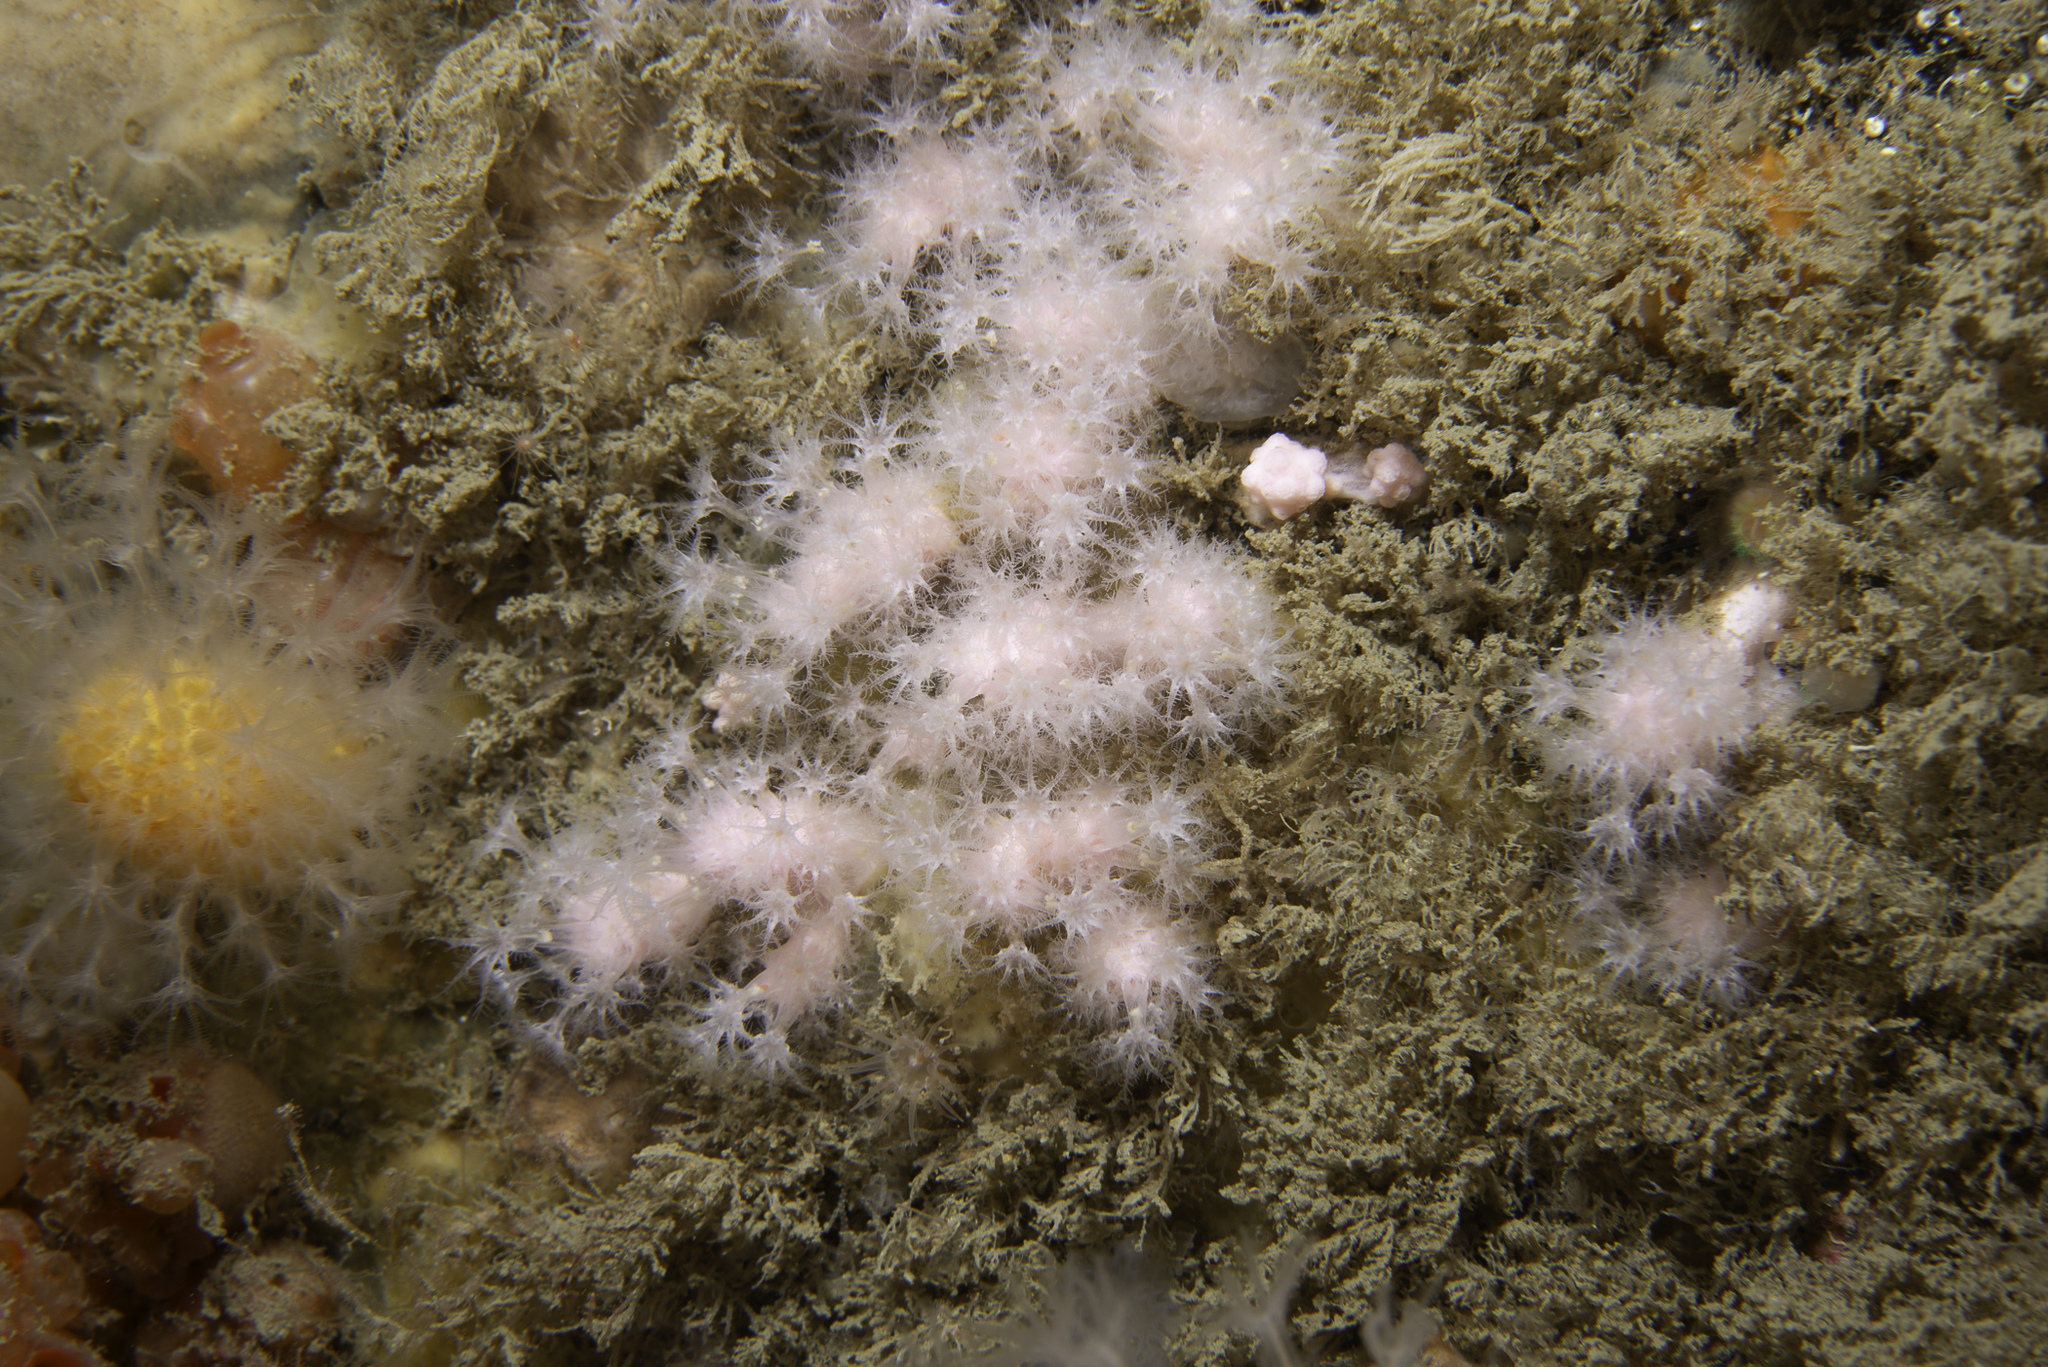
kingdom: Animalia
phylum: Cnidaria
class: Anthozoa
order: Malacalcyonacea
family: Alcyoniidae
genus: Alcyonium
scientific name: Alcyonium hibernicum
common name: Pink sea fingers
